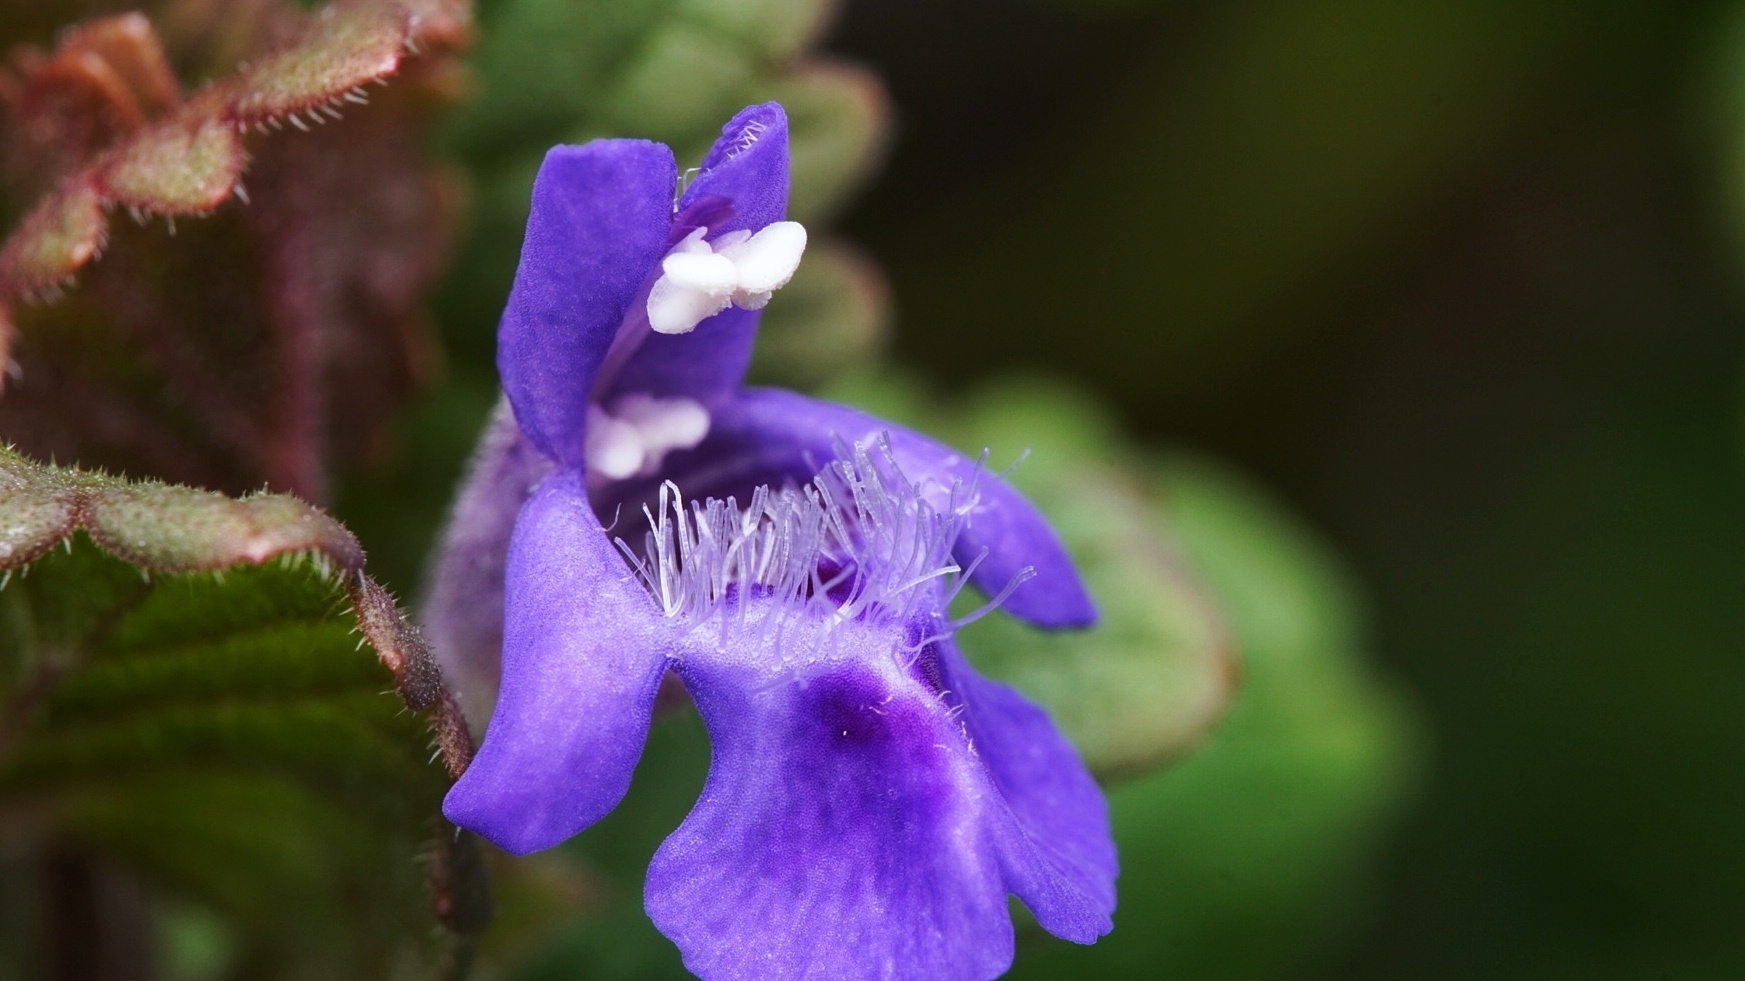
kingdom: Plantae
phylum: Tracheophyta
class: Magnoliopsida
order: Lamiales
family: Lamiaceae
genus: Glechoma
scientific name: Glechoma hederacea
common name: Ground ivy
